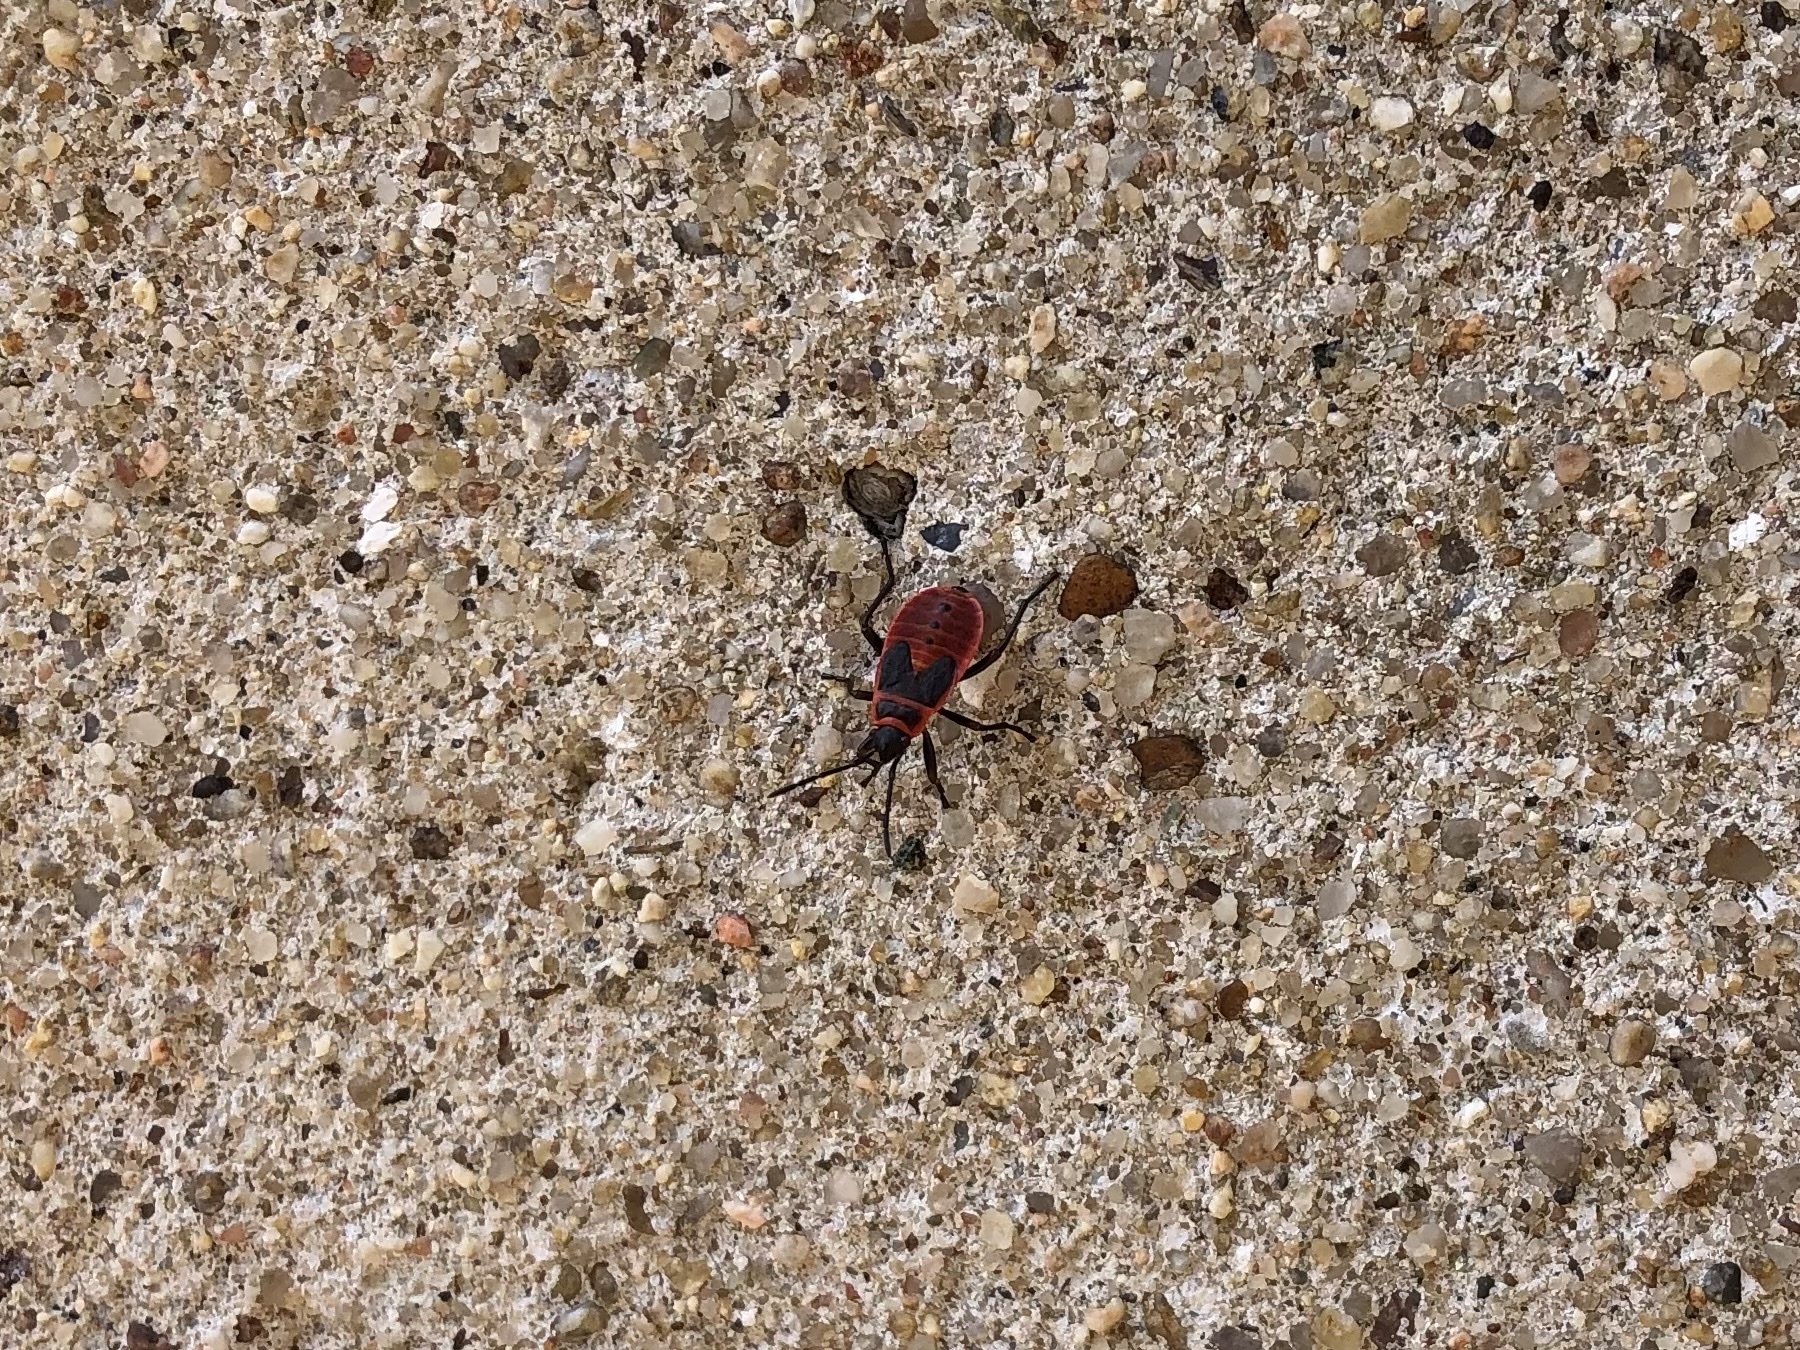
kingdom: Animalia
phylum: Arthropoda
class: Insecta
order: Hemiptera
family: Pyrrhocoridae
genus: Pyrrhocoris
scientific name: Pyrrhocoris apterus
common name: Firebug
